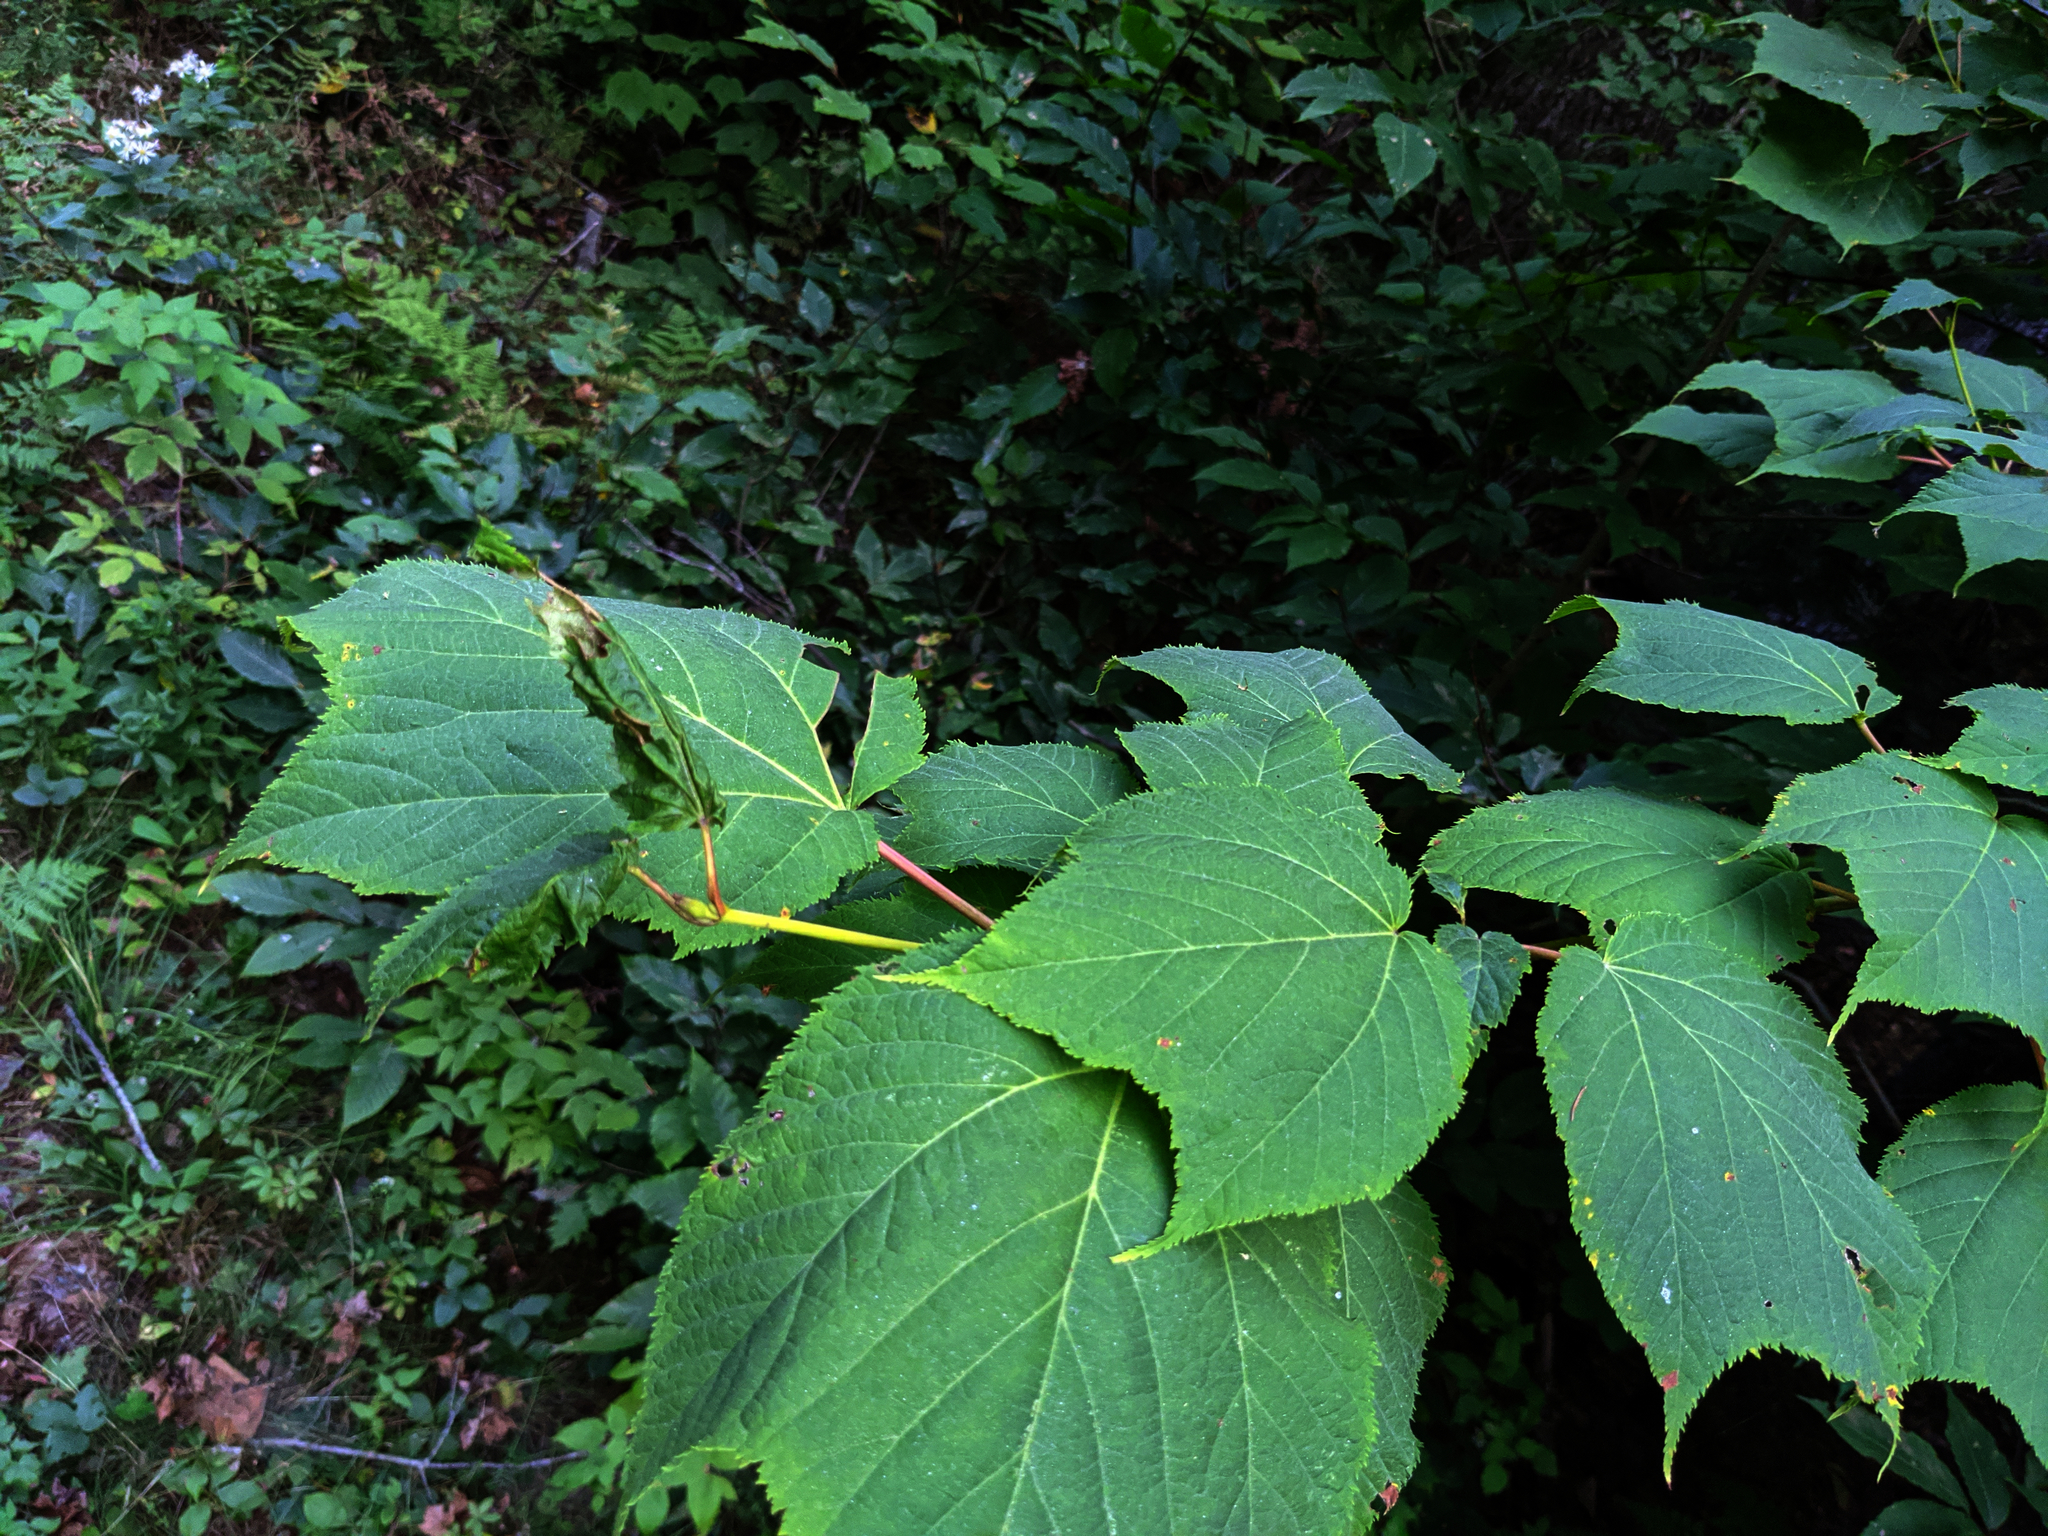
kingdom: Plantae
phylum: Tracheophyta
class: Magnoliopsida
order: Sapindales
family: Sapindaceae
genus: Acer
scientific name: Acer pensylvanicum
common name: Moosewood
